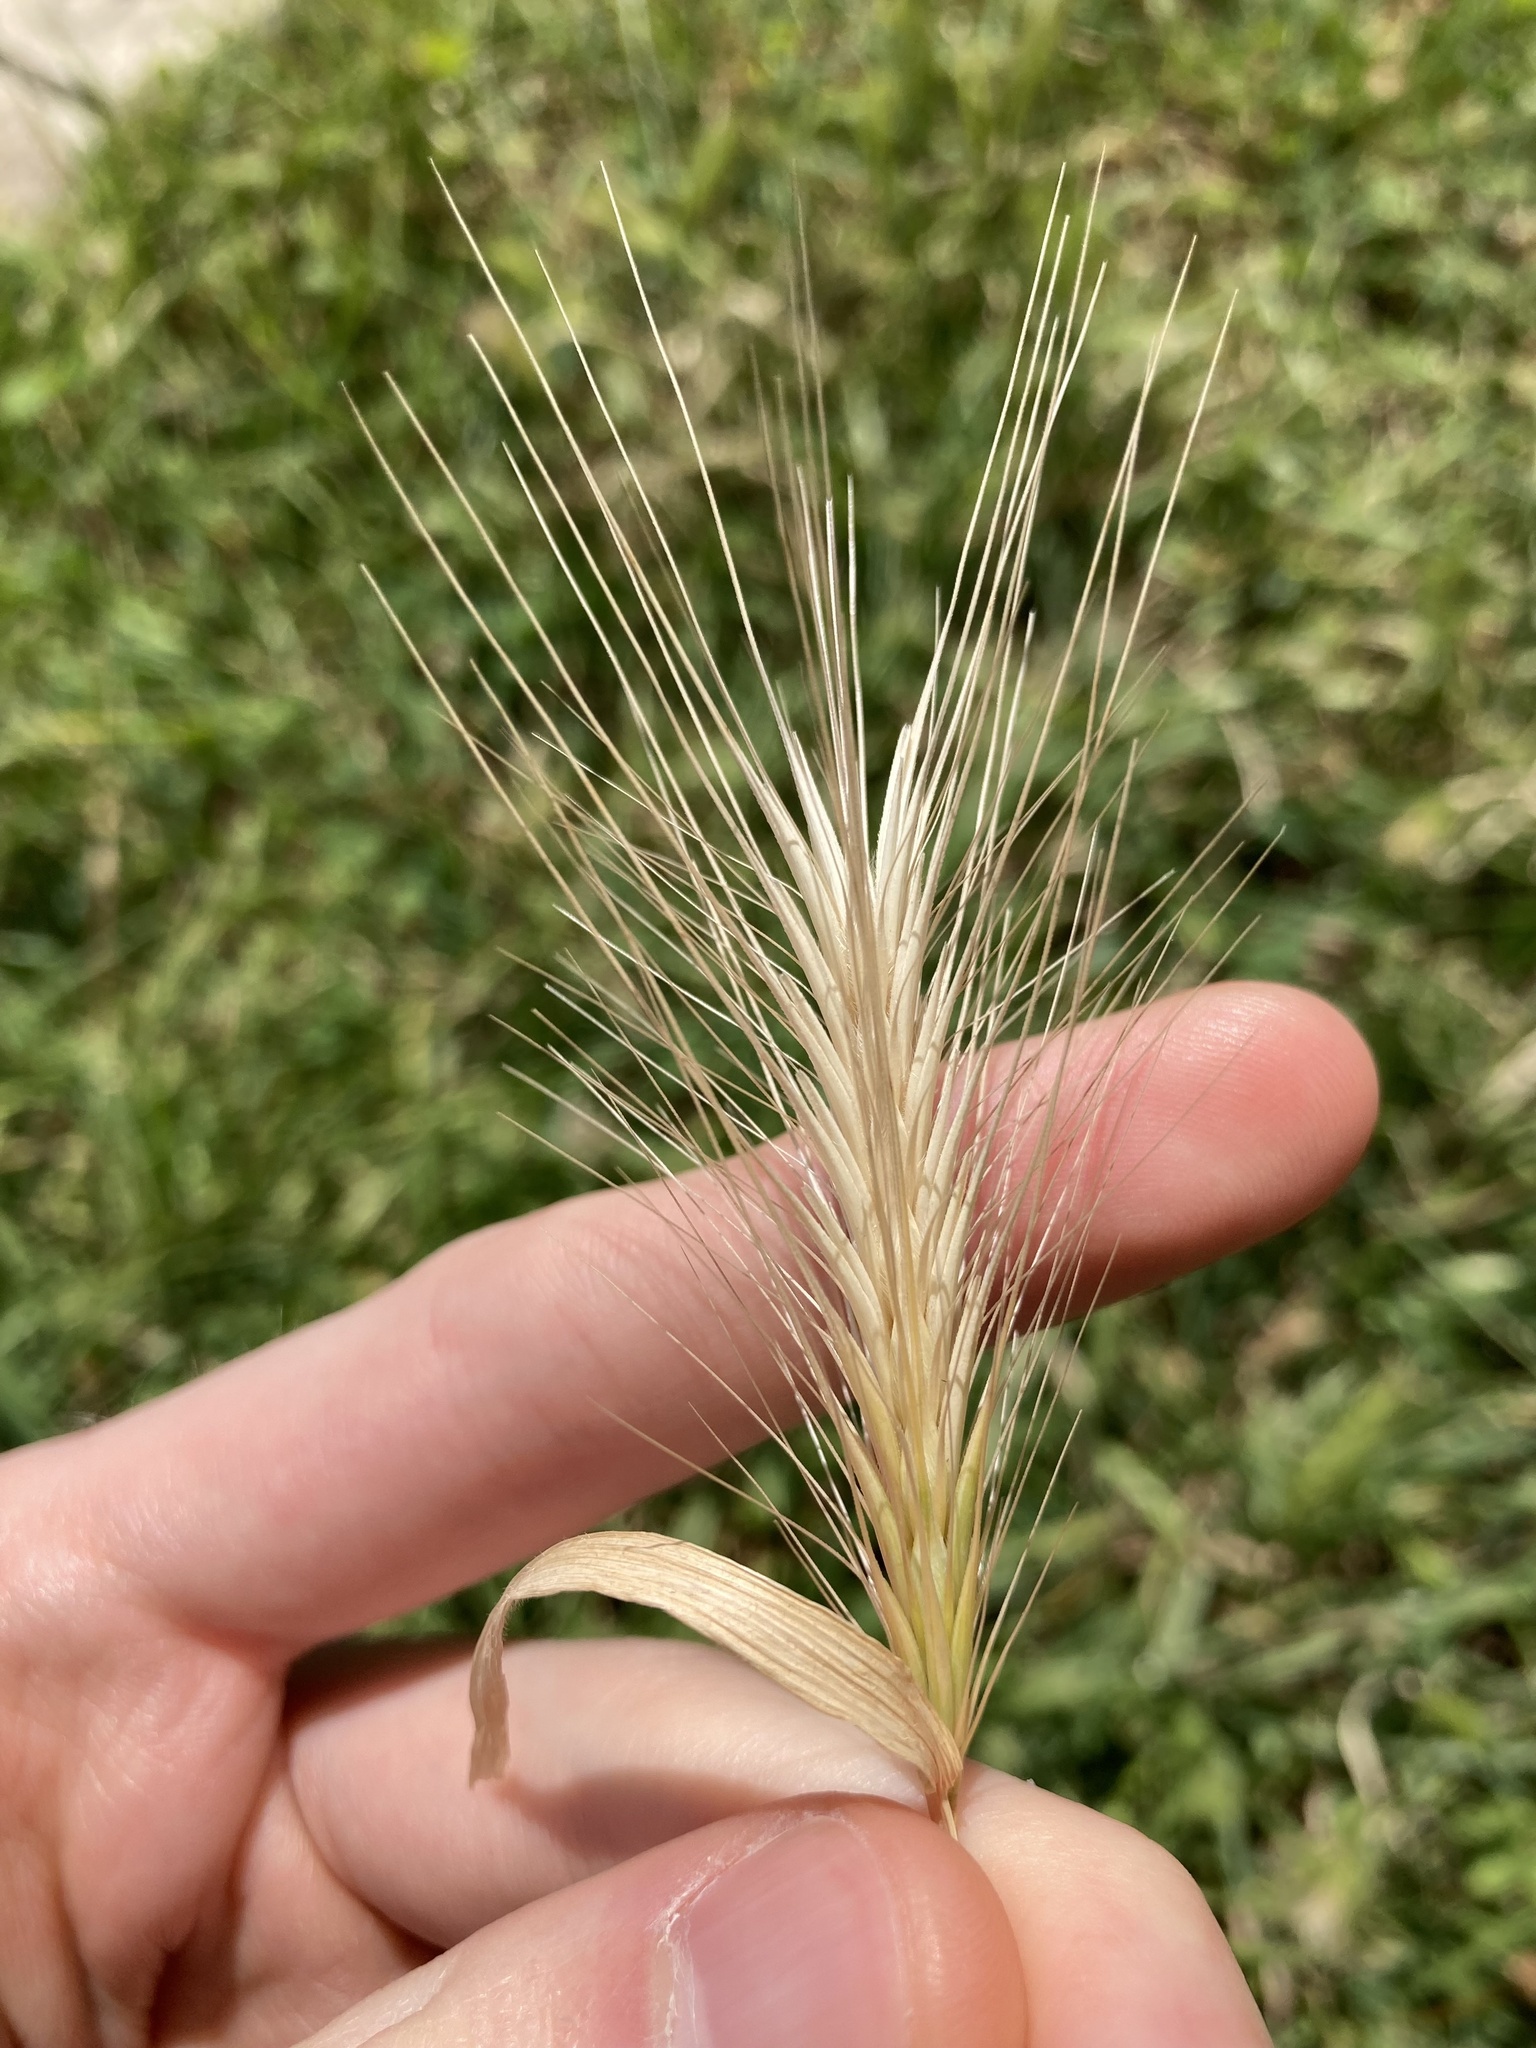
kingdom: Plantae
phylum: Tracheophyta
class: Liliopsida
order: Poales
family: Poaceae
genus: Hordeum
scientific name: Hordeum murinum
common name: Wall barley
